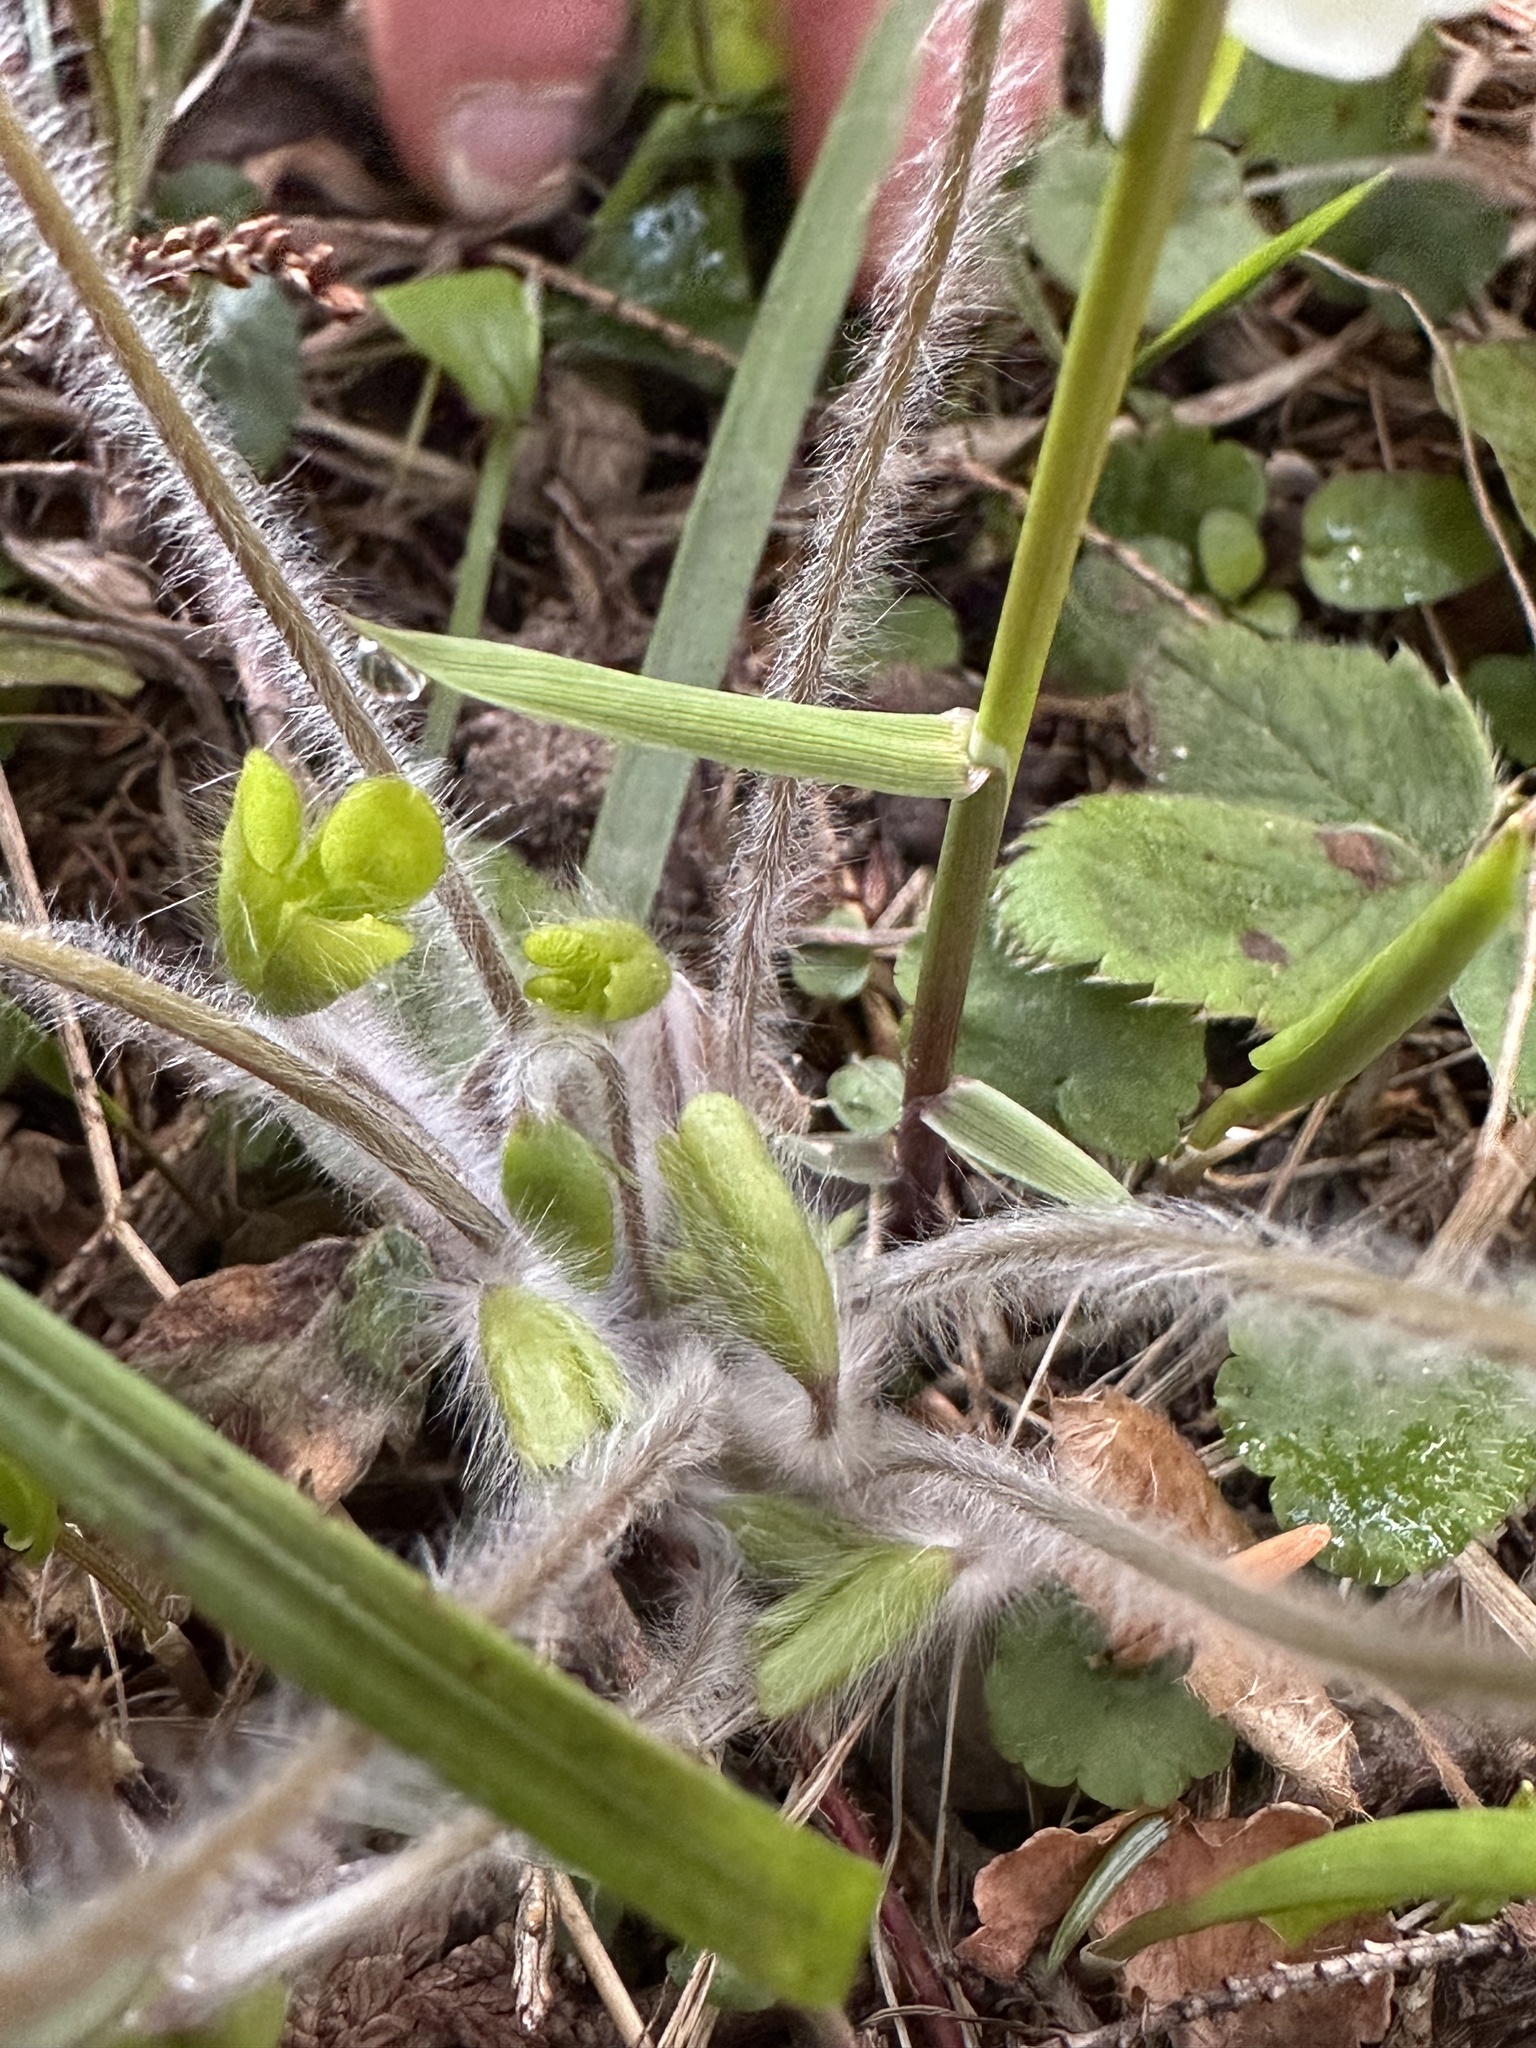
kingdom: Plantae
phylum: Tracheophyta
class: Magnoliopsida
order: Ranunculales
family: Ranunculaceae
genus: Hepatica
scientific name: Hepatica americana
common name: American hepatica
